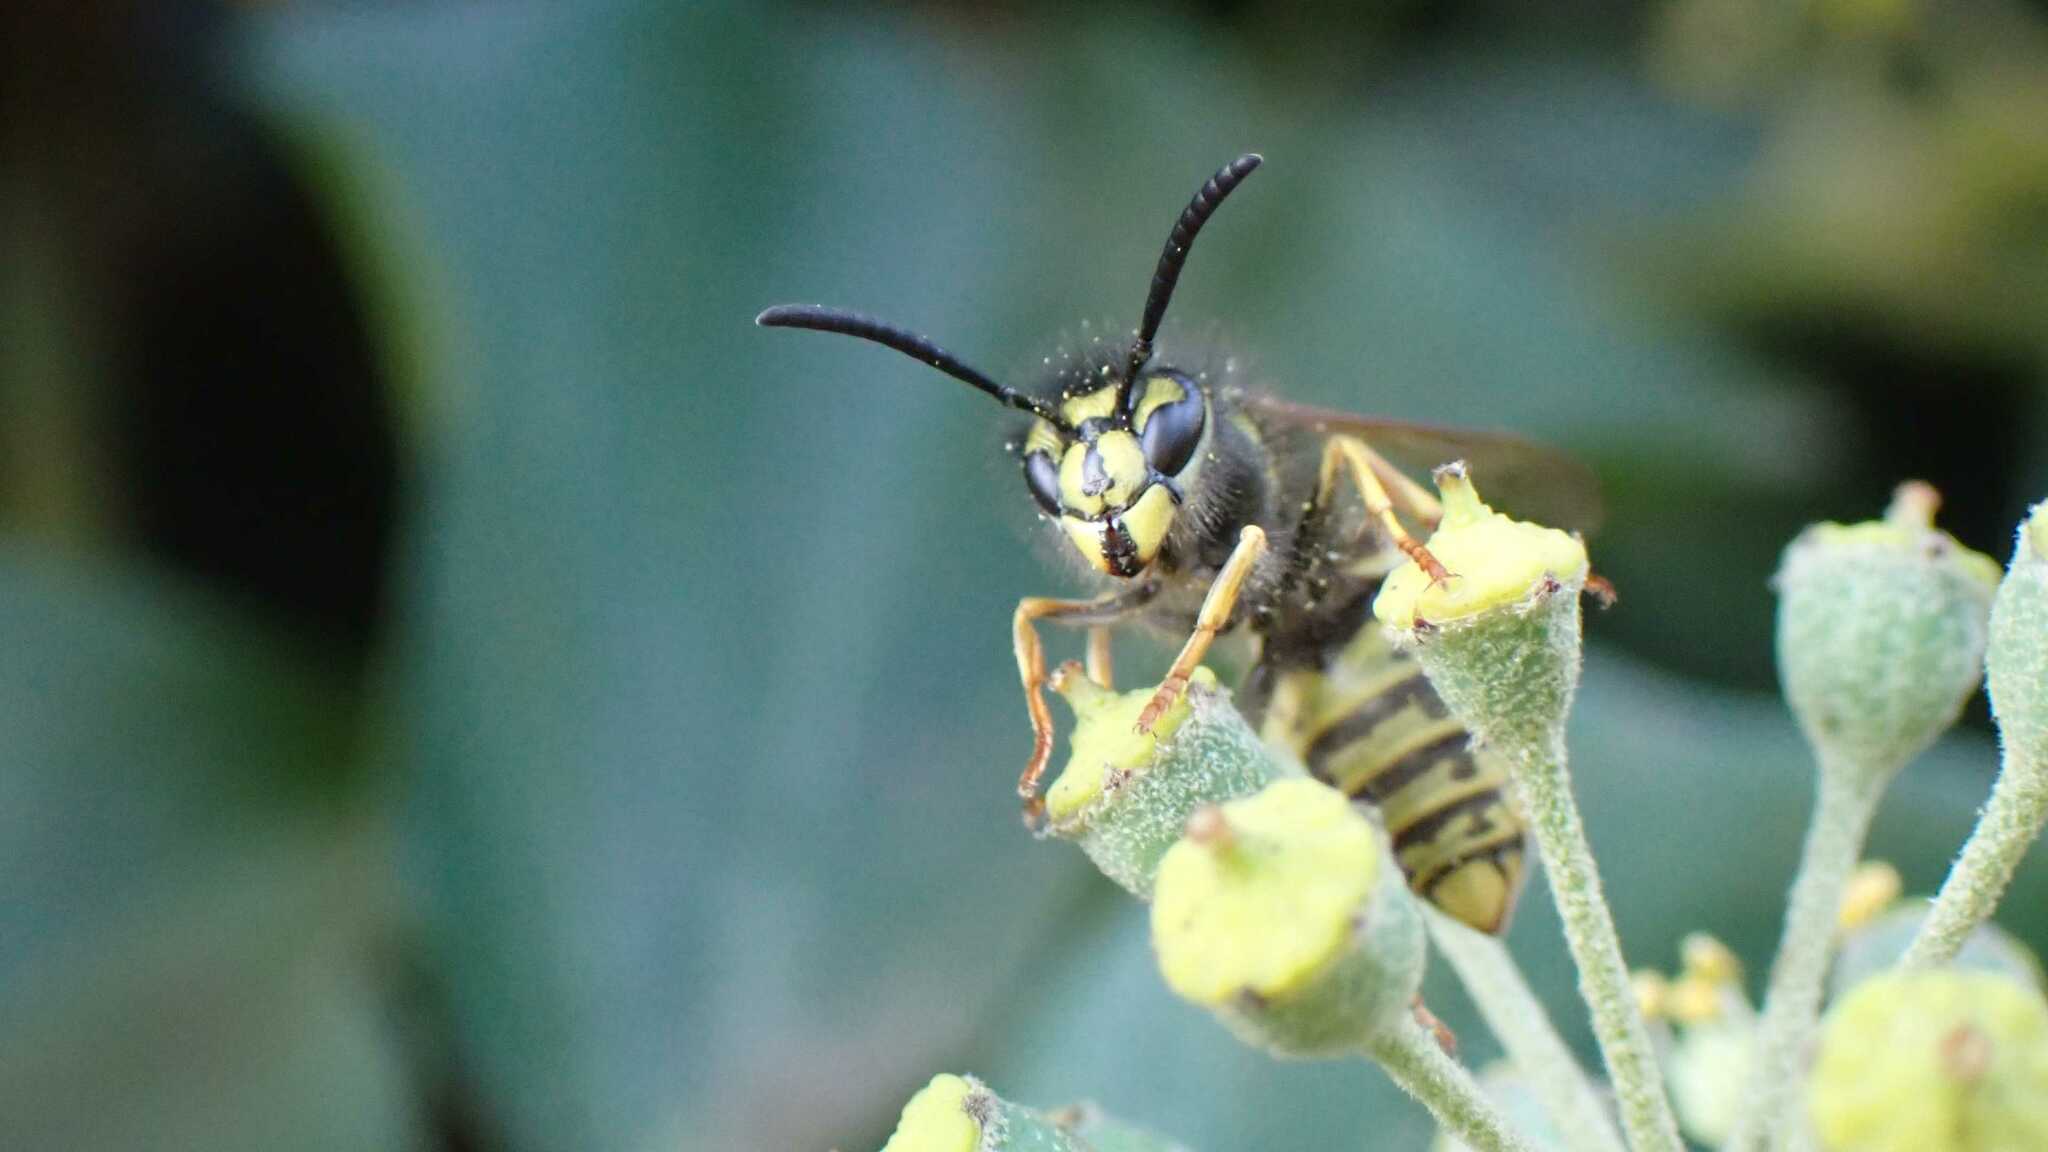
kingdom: Animalia
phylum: Arthropoda
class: Insecta
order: Hymenoptera
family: Vespidae
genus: Vespula
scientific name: Vespula vulgaris
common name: Common wasp
